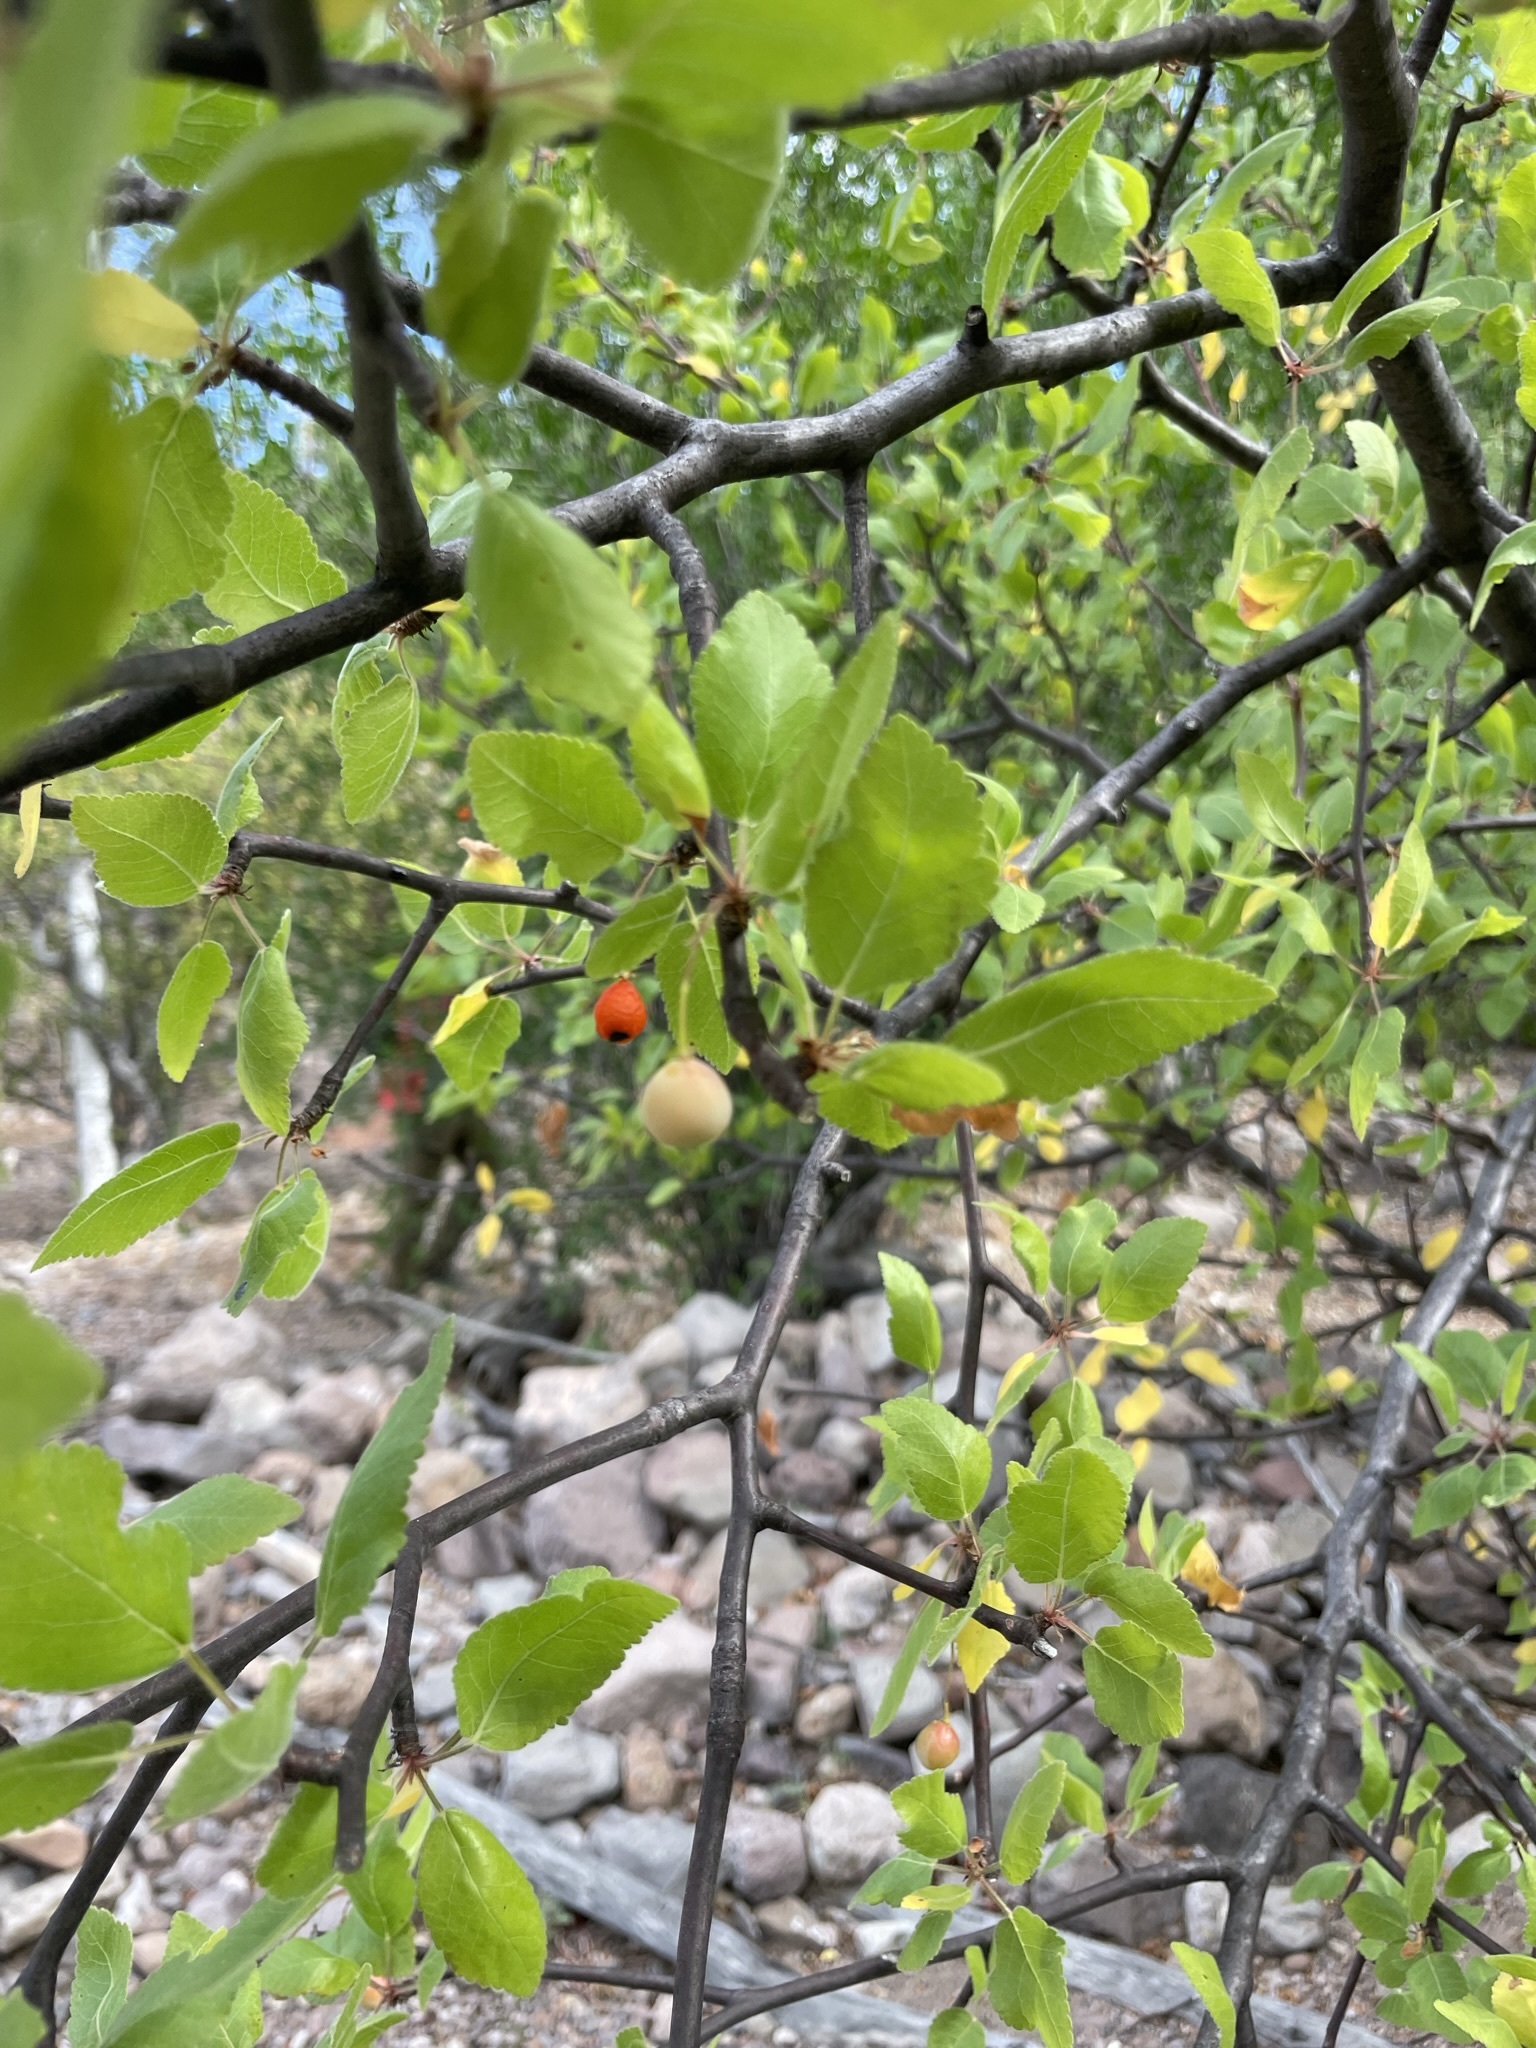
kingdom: Plantae
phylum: Tracheophyta
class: Magnoliopsida
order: Sapindales
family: Burseraceae
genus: Bursera
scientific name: Bursera epinnata
